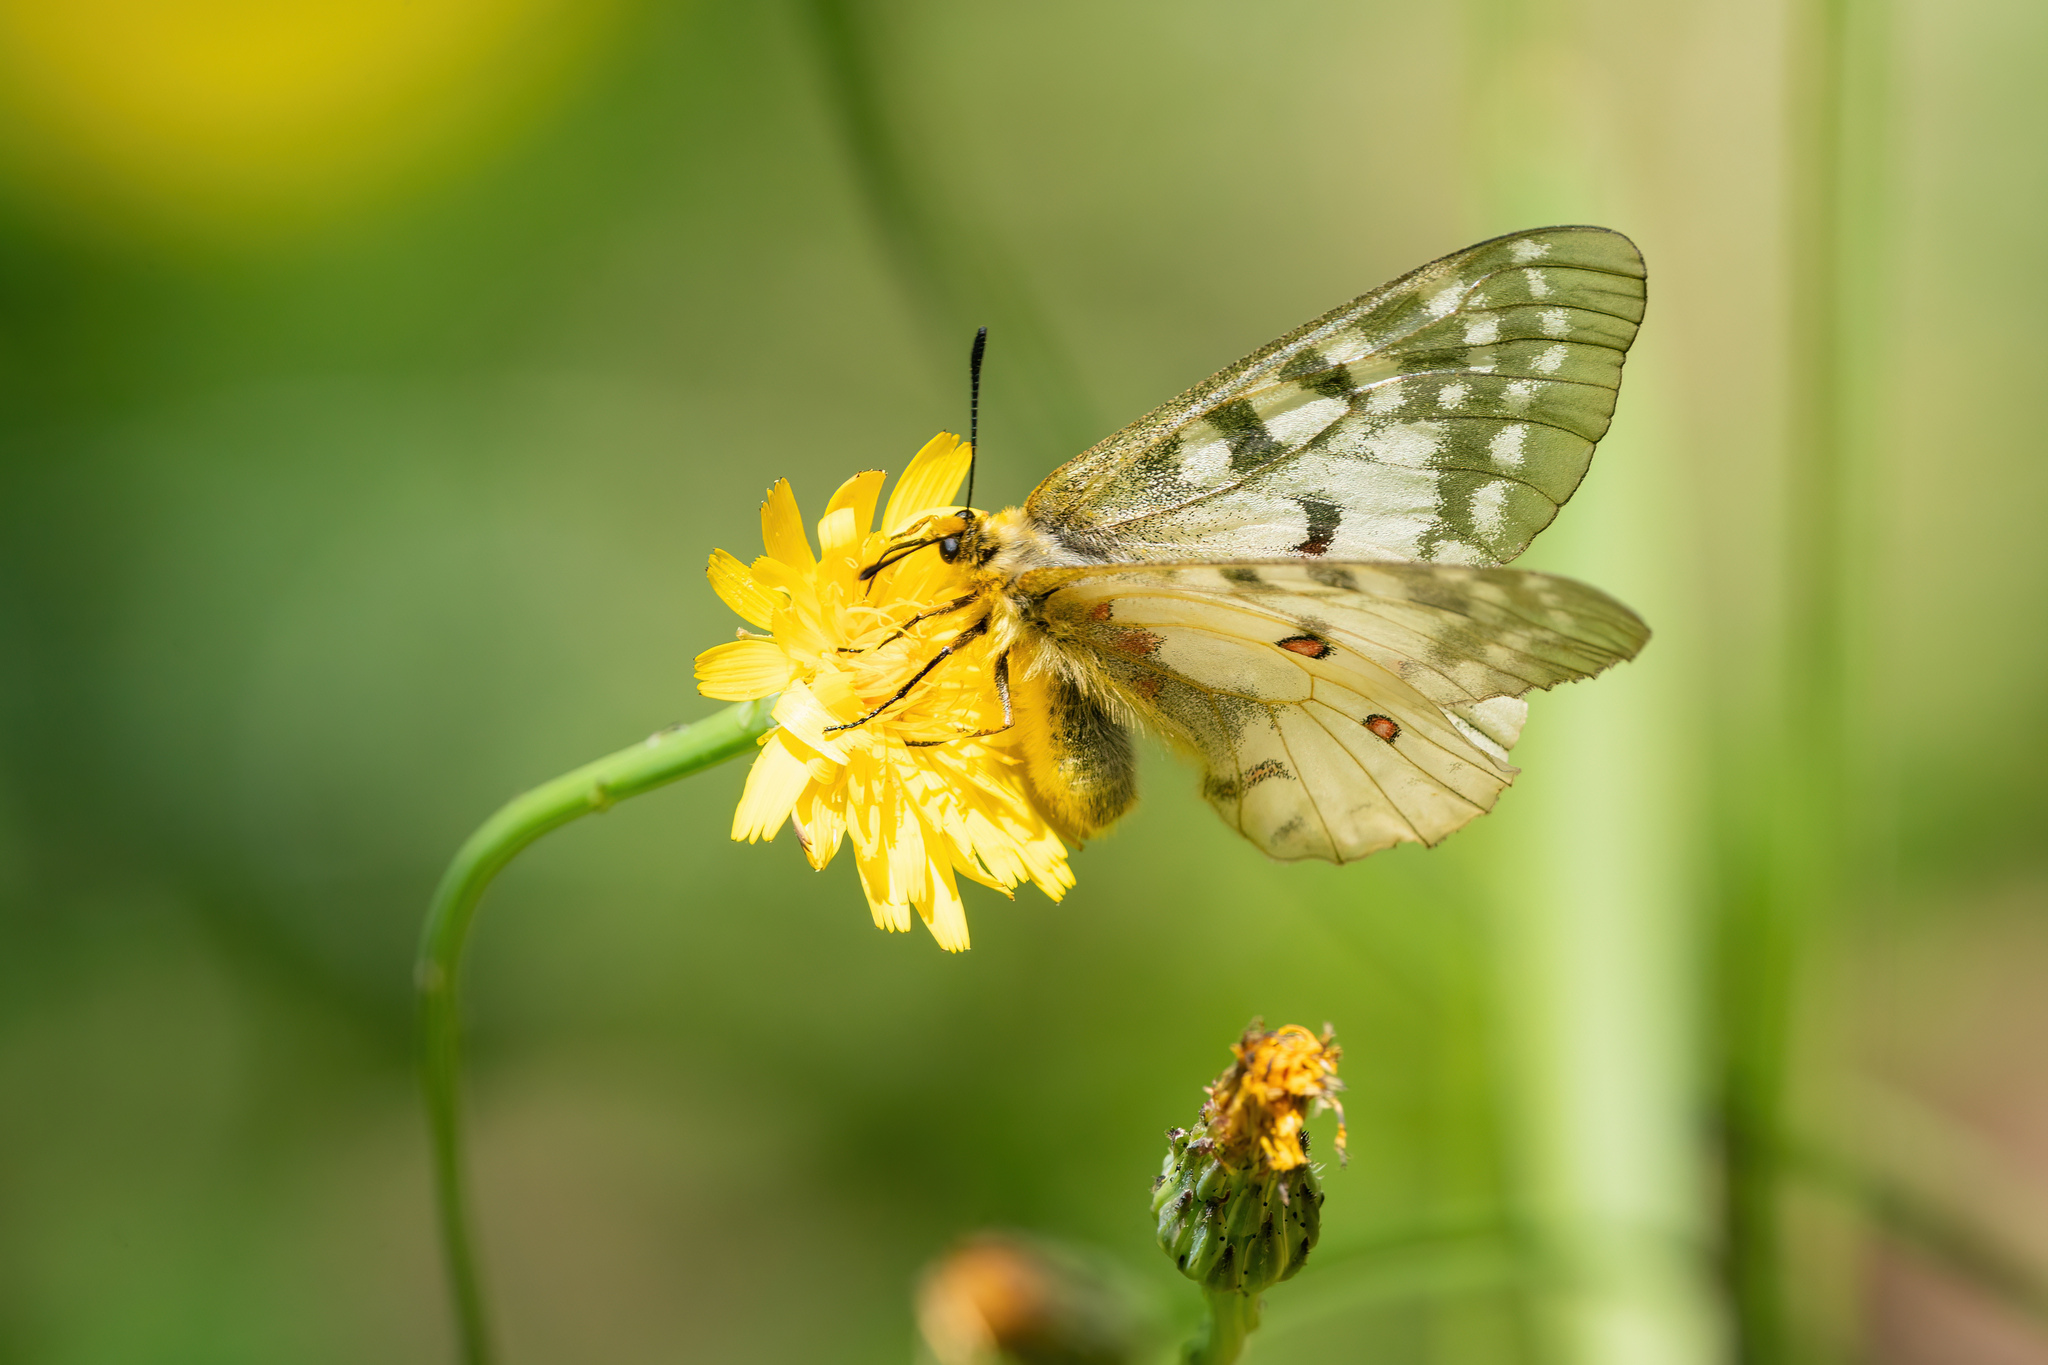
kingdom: Animalia
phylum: Arthropoda
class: Insecta
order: Lepidoptera
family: Papilionidae
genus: Parnassius
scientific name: Parnassius clodius
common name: American apollo
